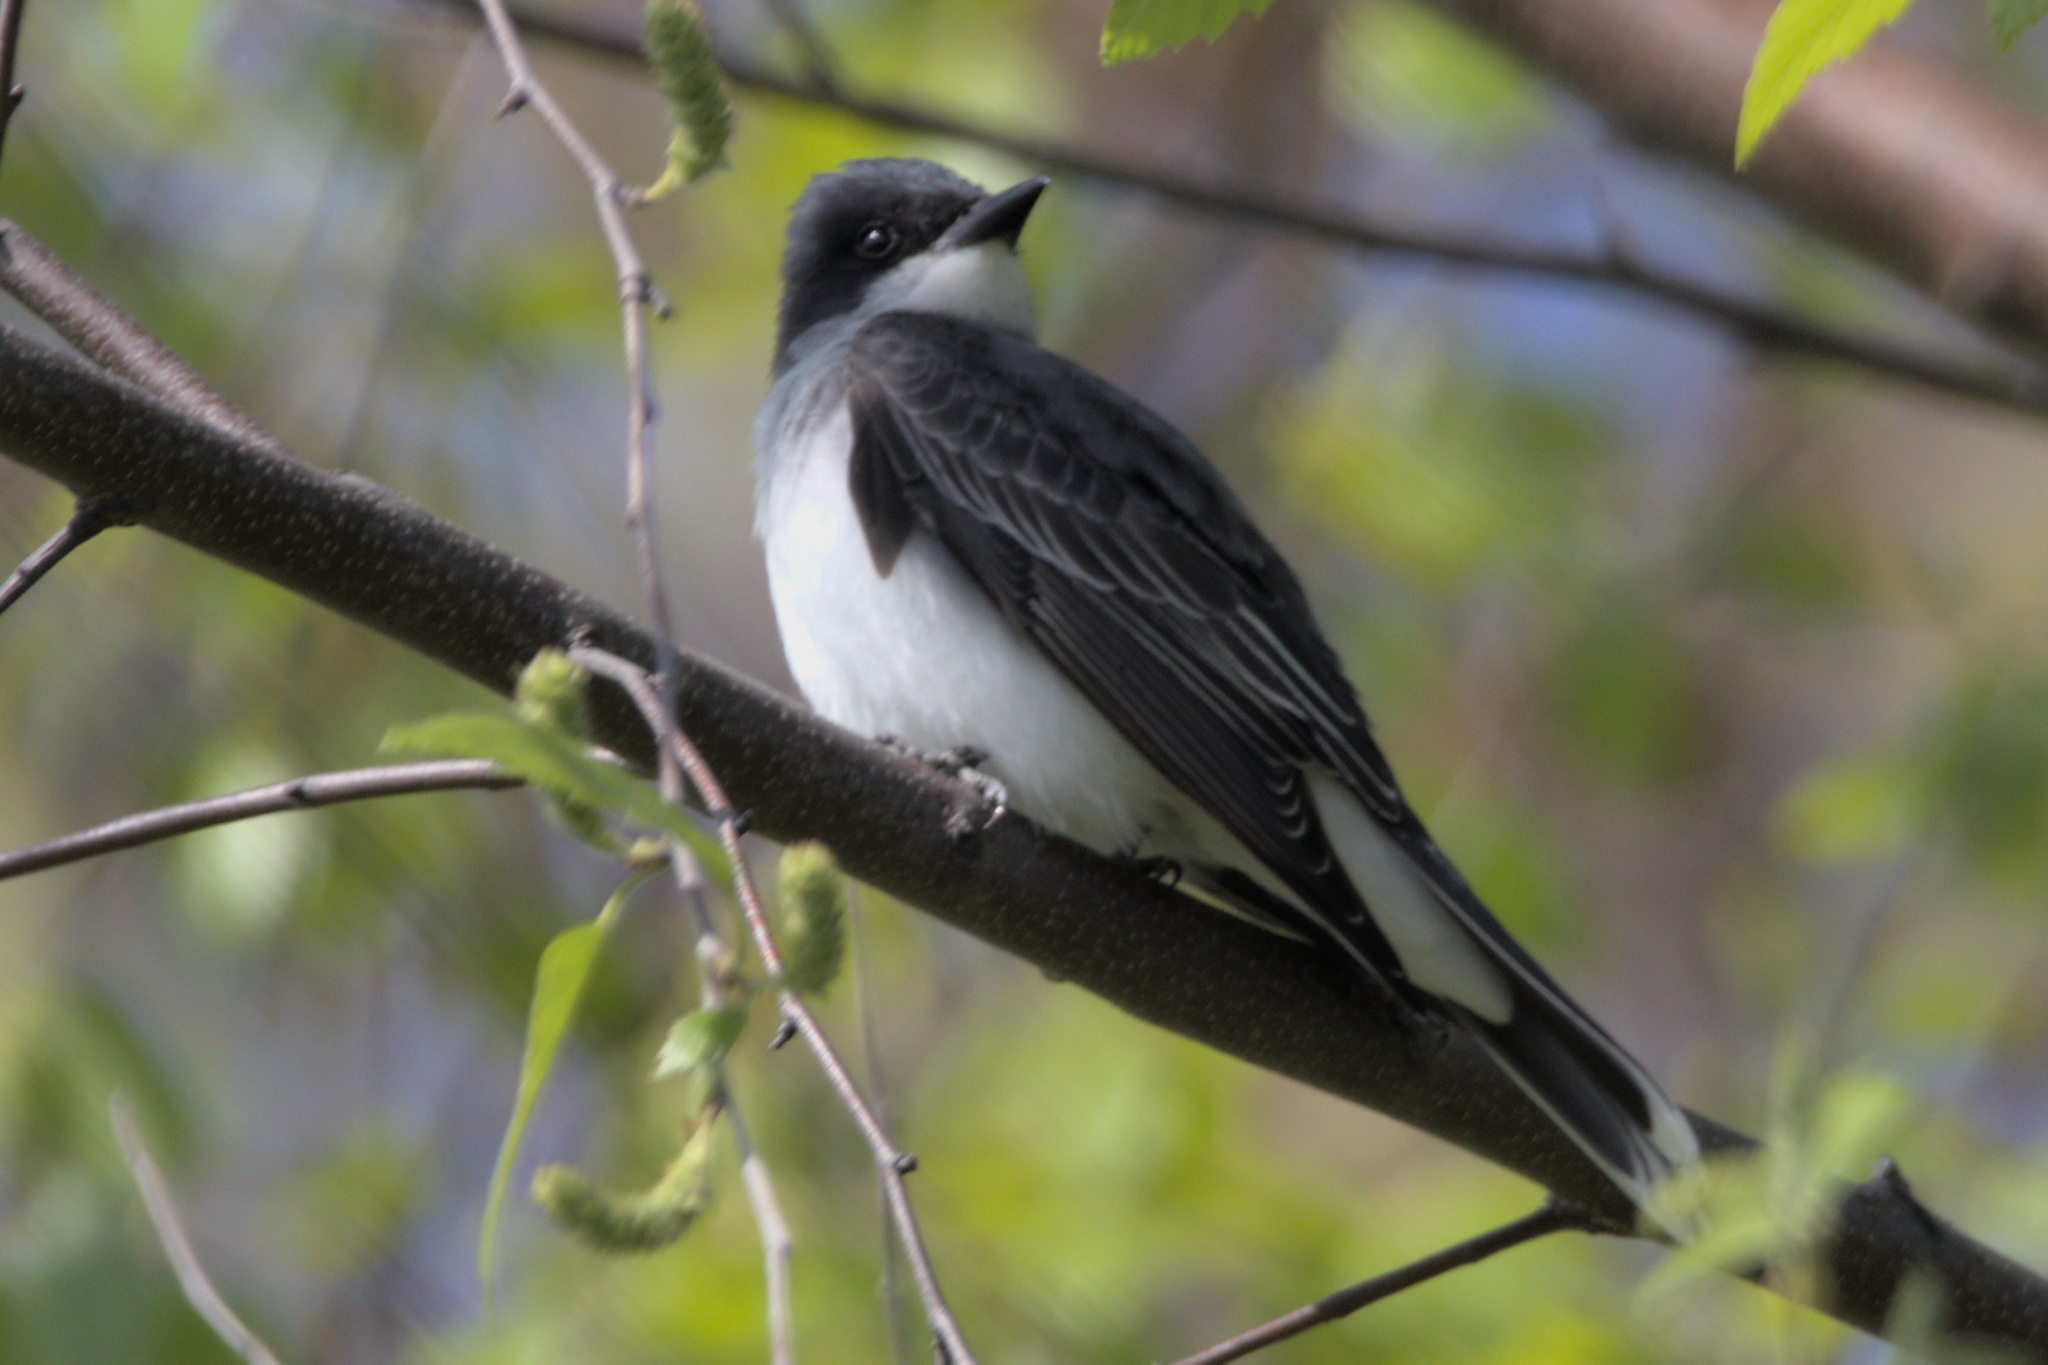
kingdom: Animalia
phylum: Chordata
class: Aves
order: Passeriformes
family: Tyrannidae
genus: Tyrannus
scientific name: Tyrannus tyrannus
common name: Eastern kingbird
